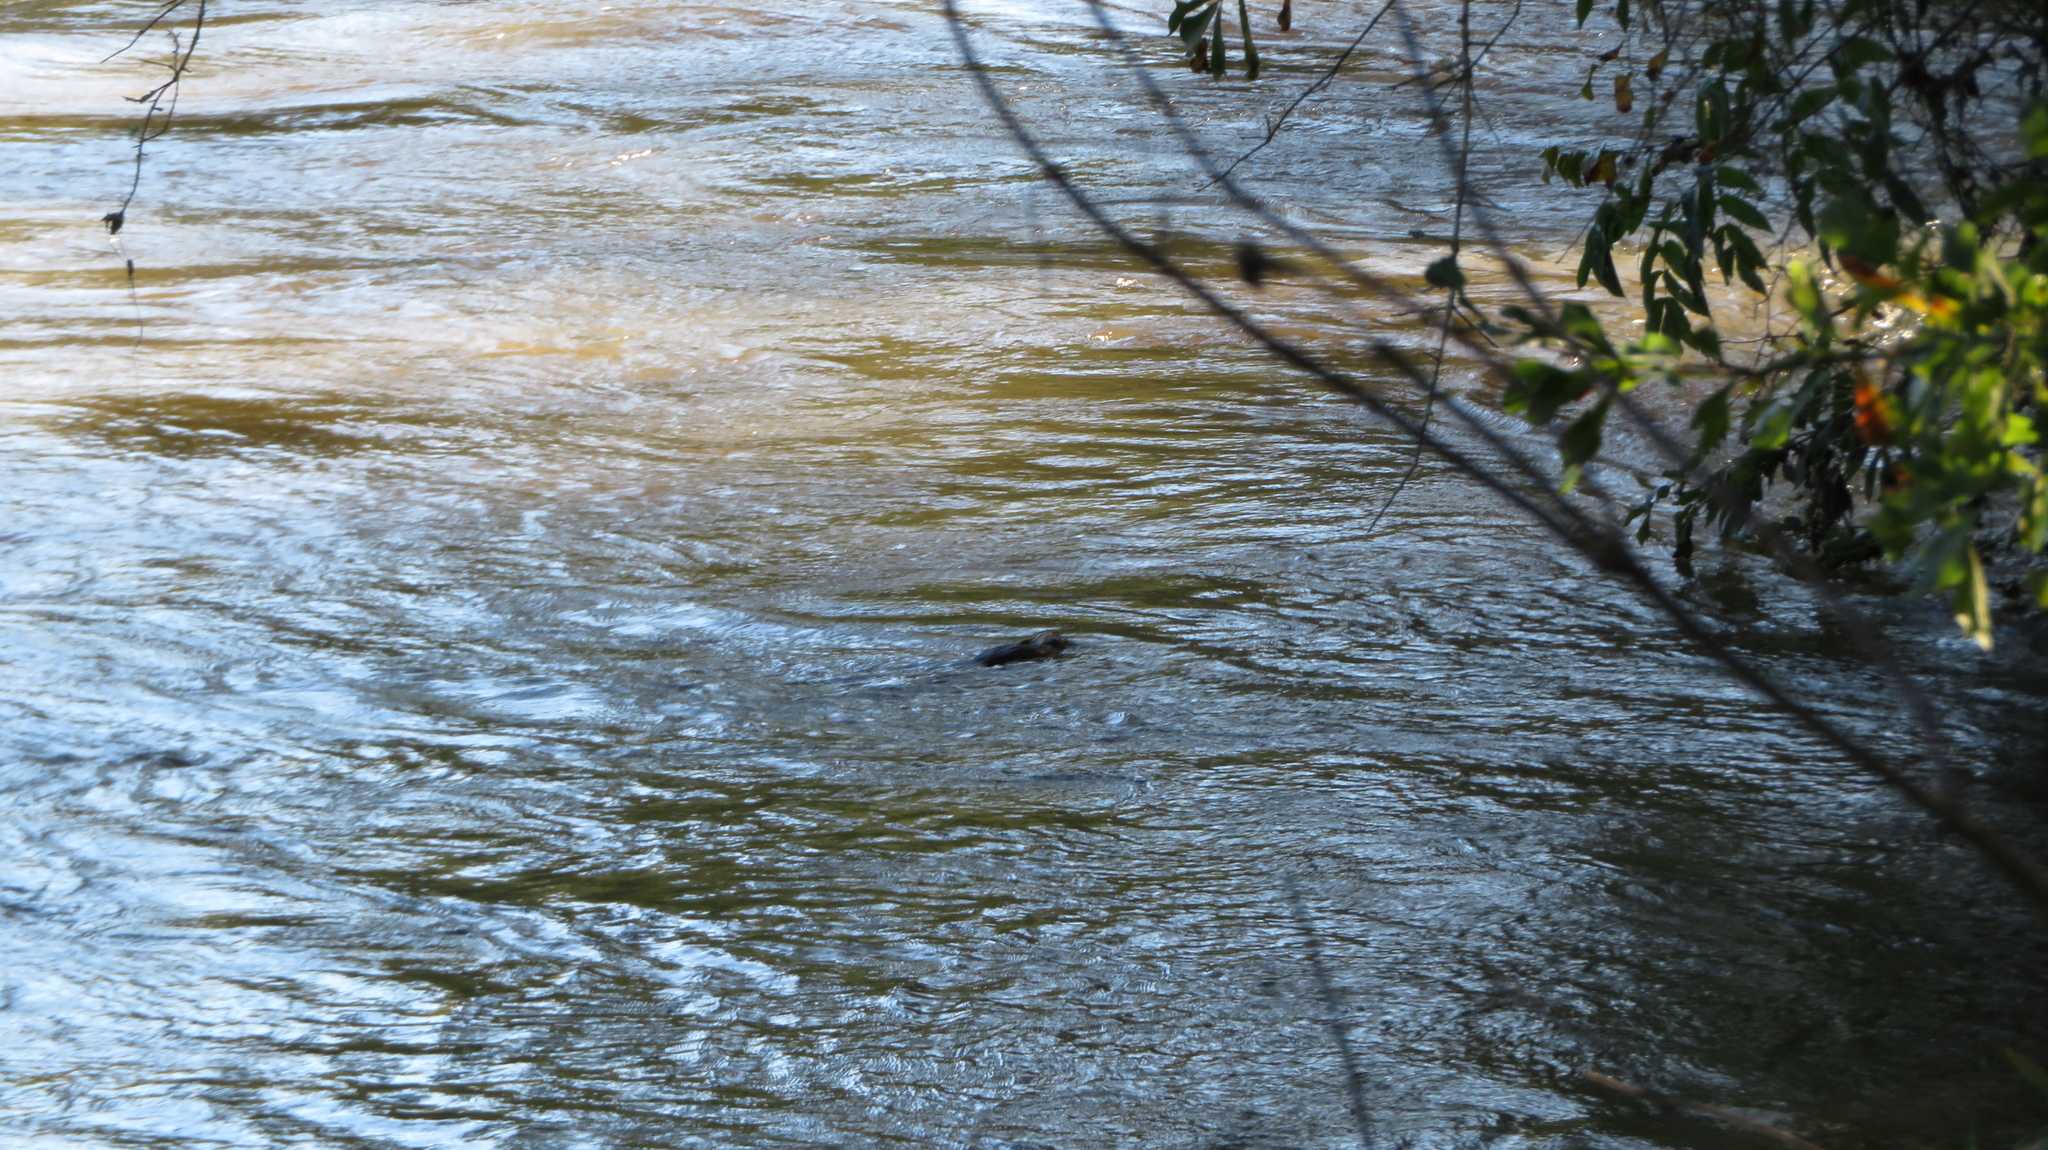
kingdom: Animalia
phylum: Chordata
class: Mammalia
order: Rodentia
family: Cricetidae
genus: Ondatra
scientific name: Ondatra zibethicus
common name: Muskrat
